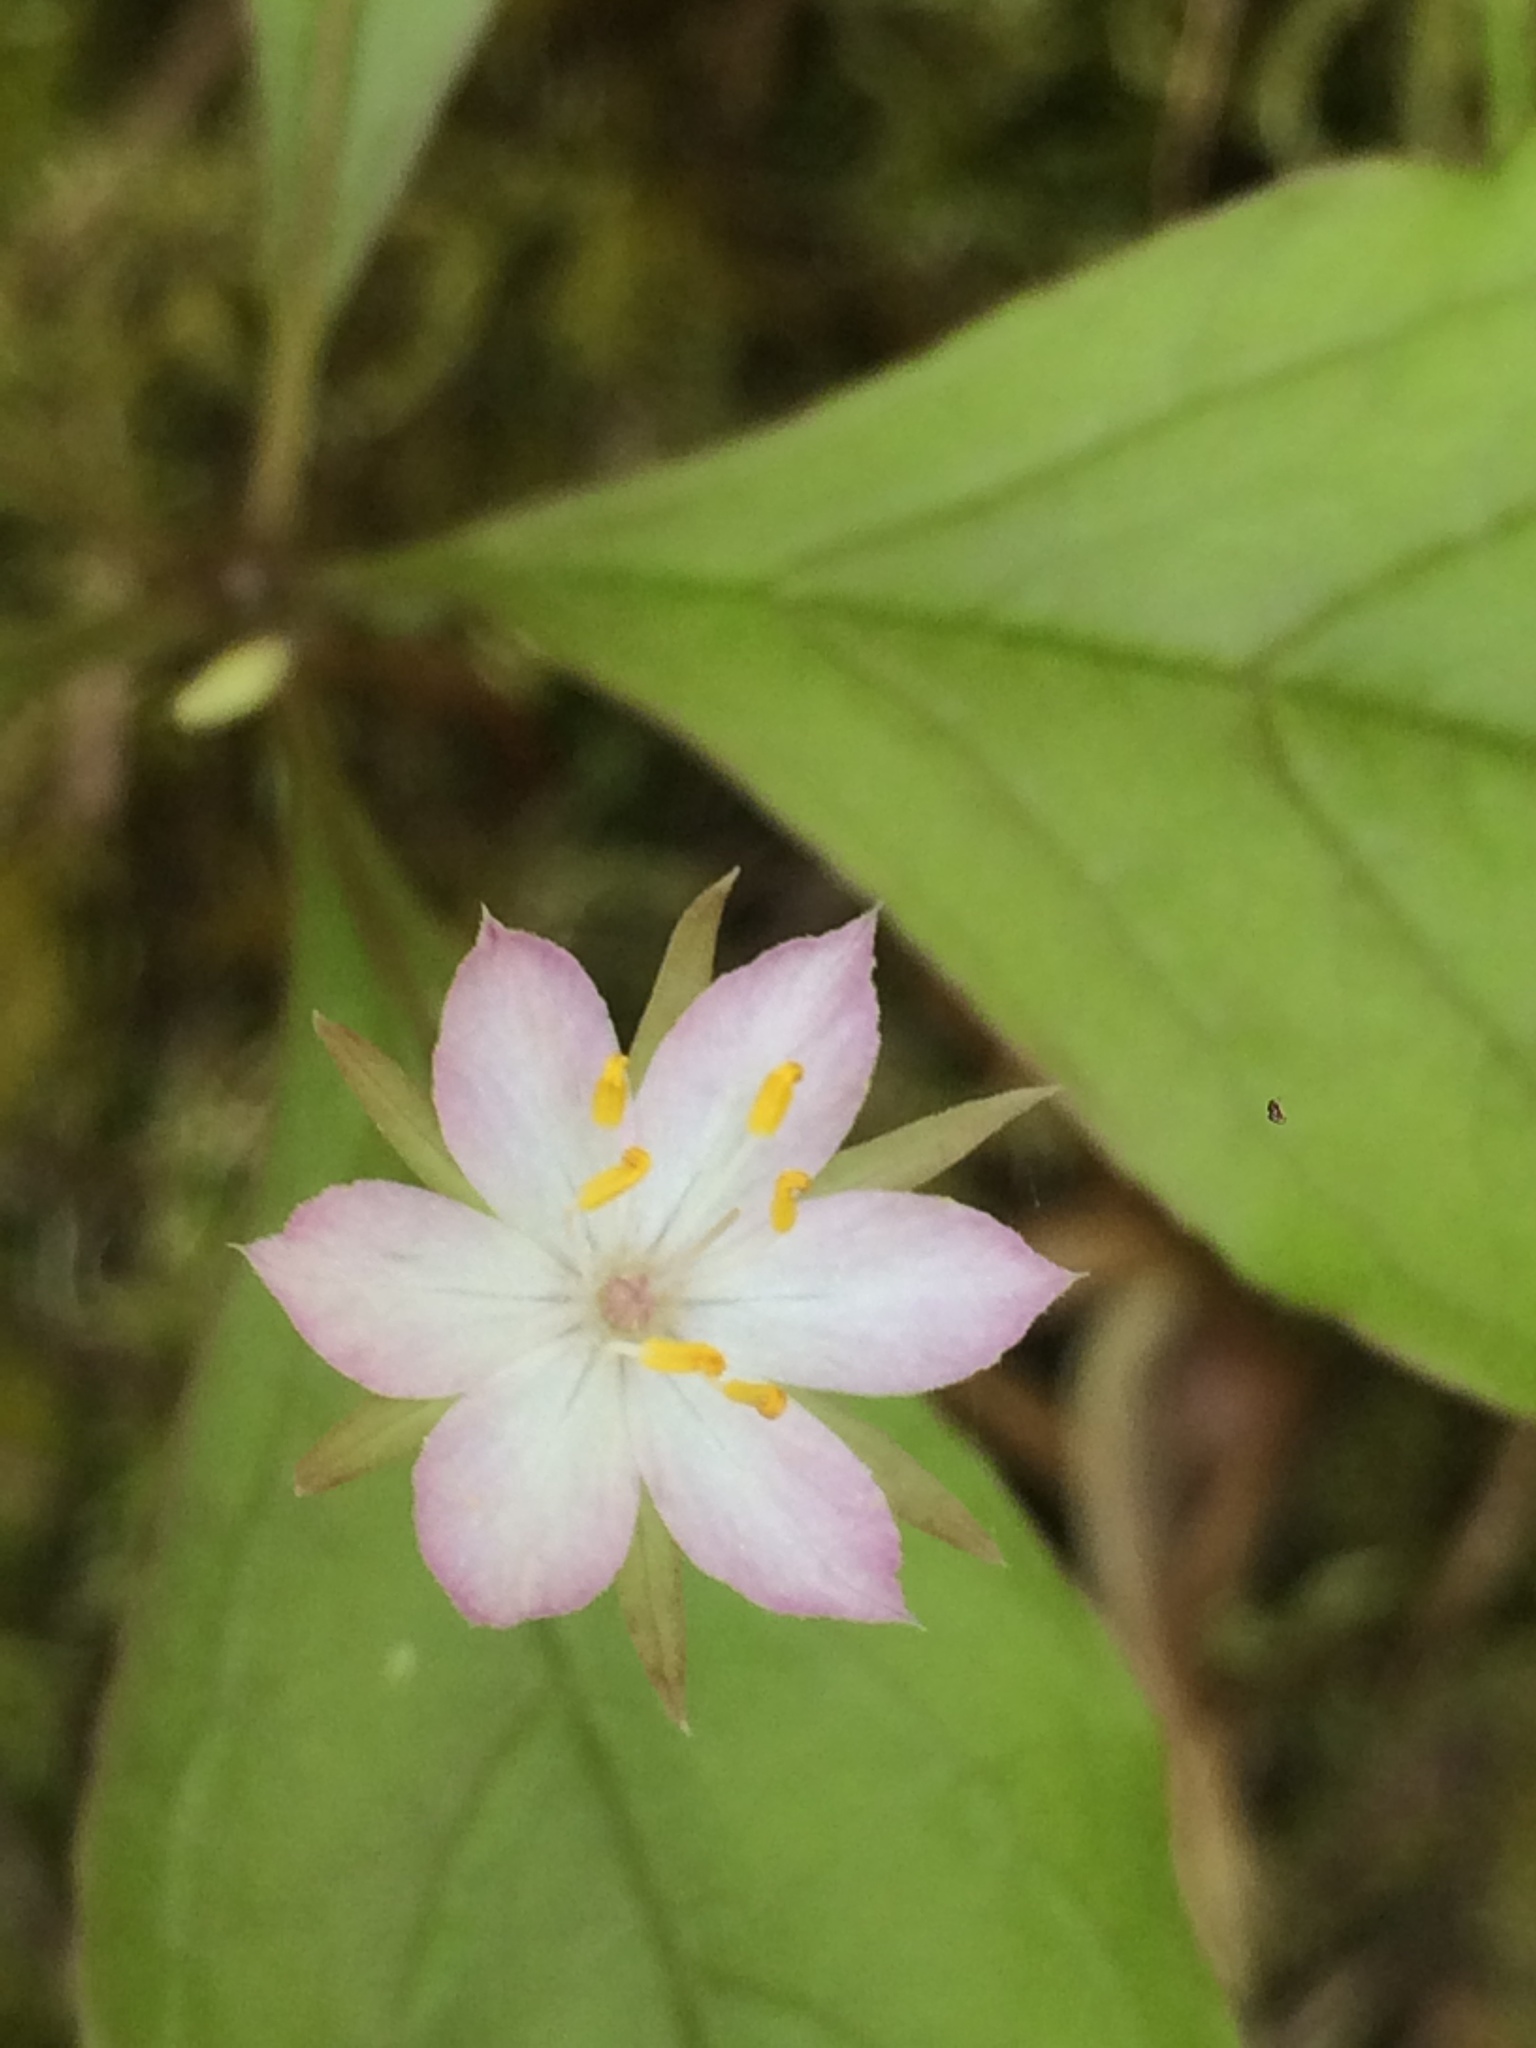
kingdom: Plantae
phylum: Tracheophyta
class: Magnoliopsida
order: Ericales
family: Primulaceae
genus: Lysimachia
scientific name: Lysimachia latifolia
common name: Pacific starflower
